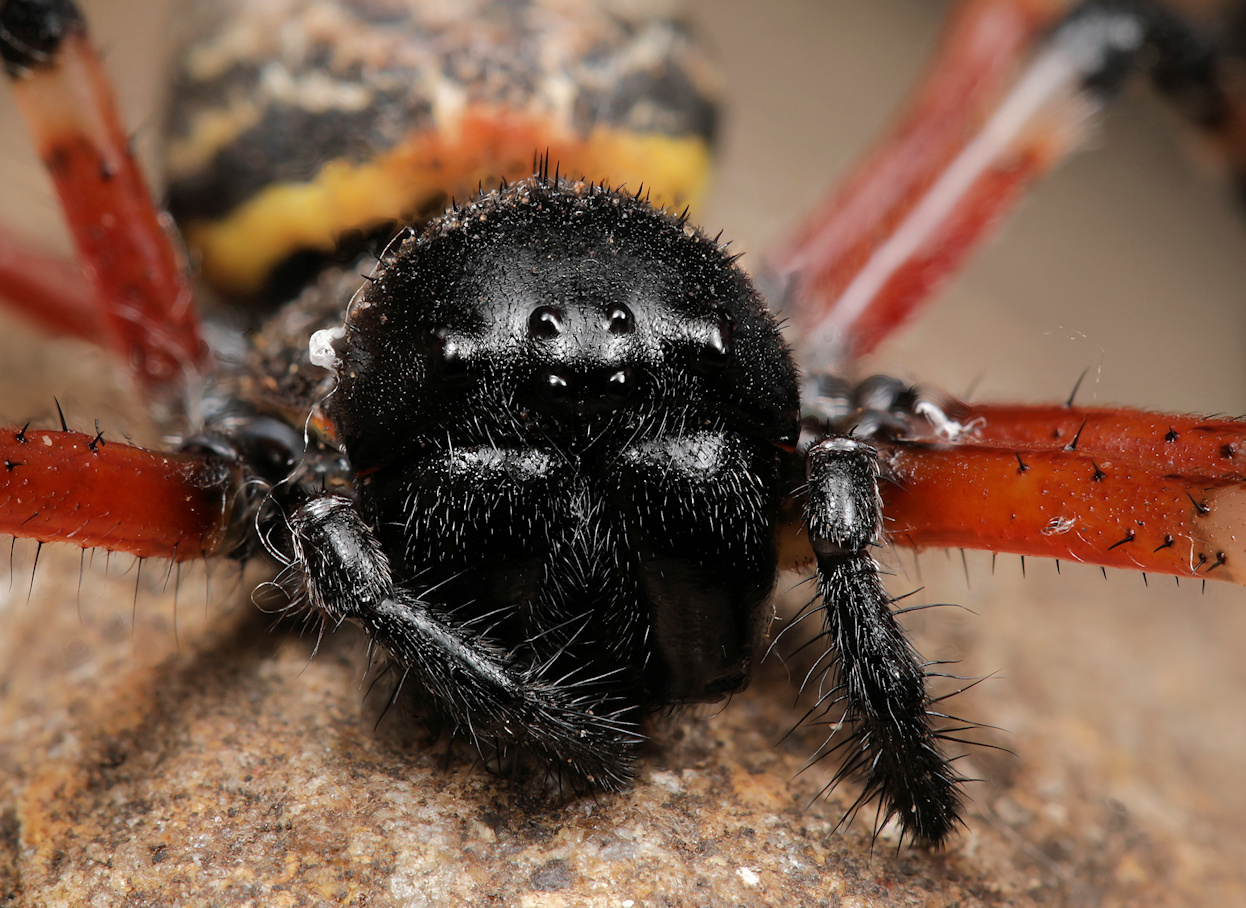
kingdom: Animalia
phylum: Arthropoda
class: Arachnida
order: Araneae
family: Araneidae
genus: Nephilingis
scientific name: Nephilingis cruentata
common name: African hermit spider
